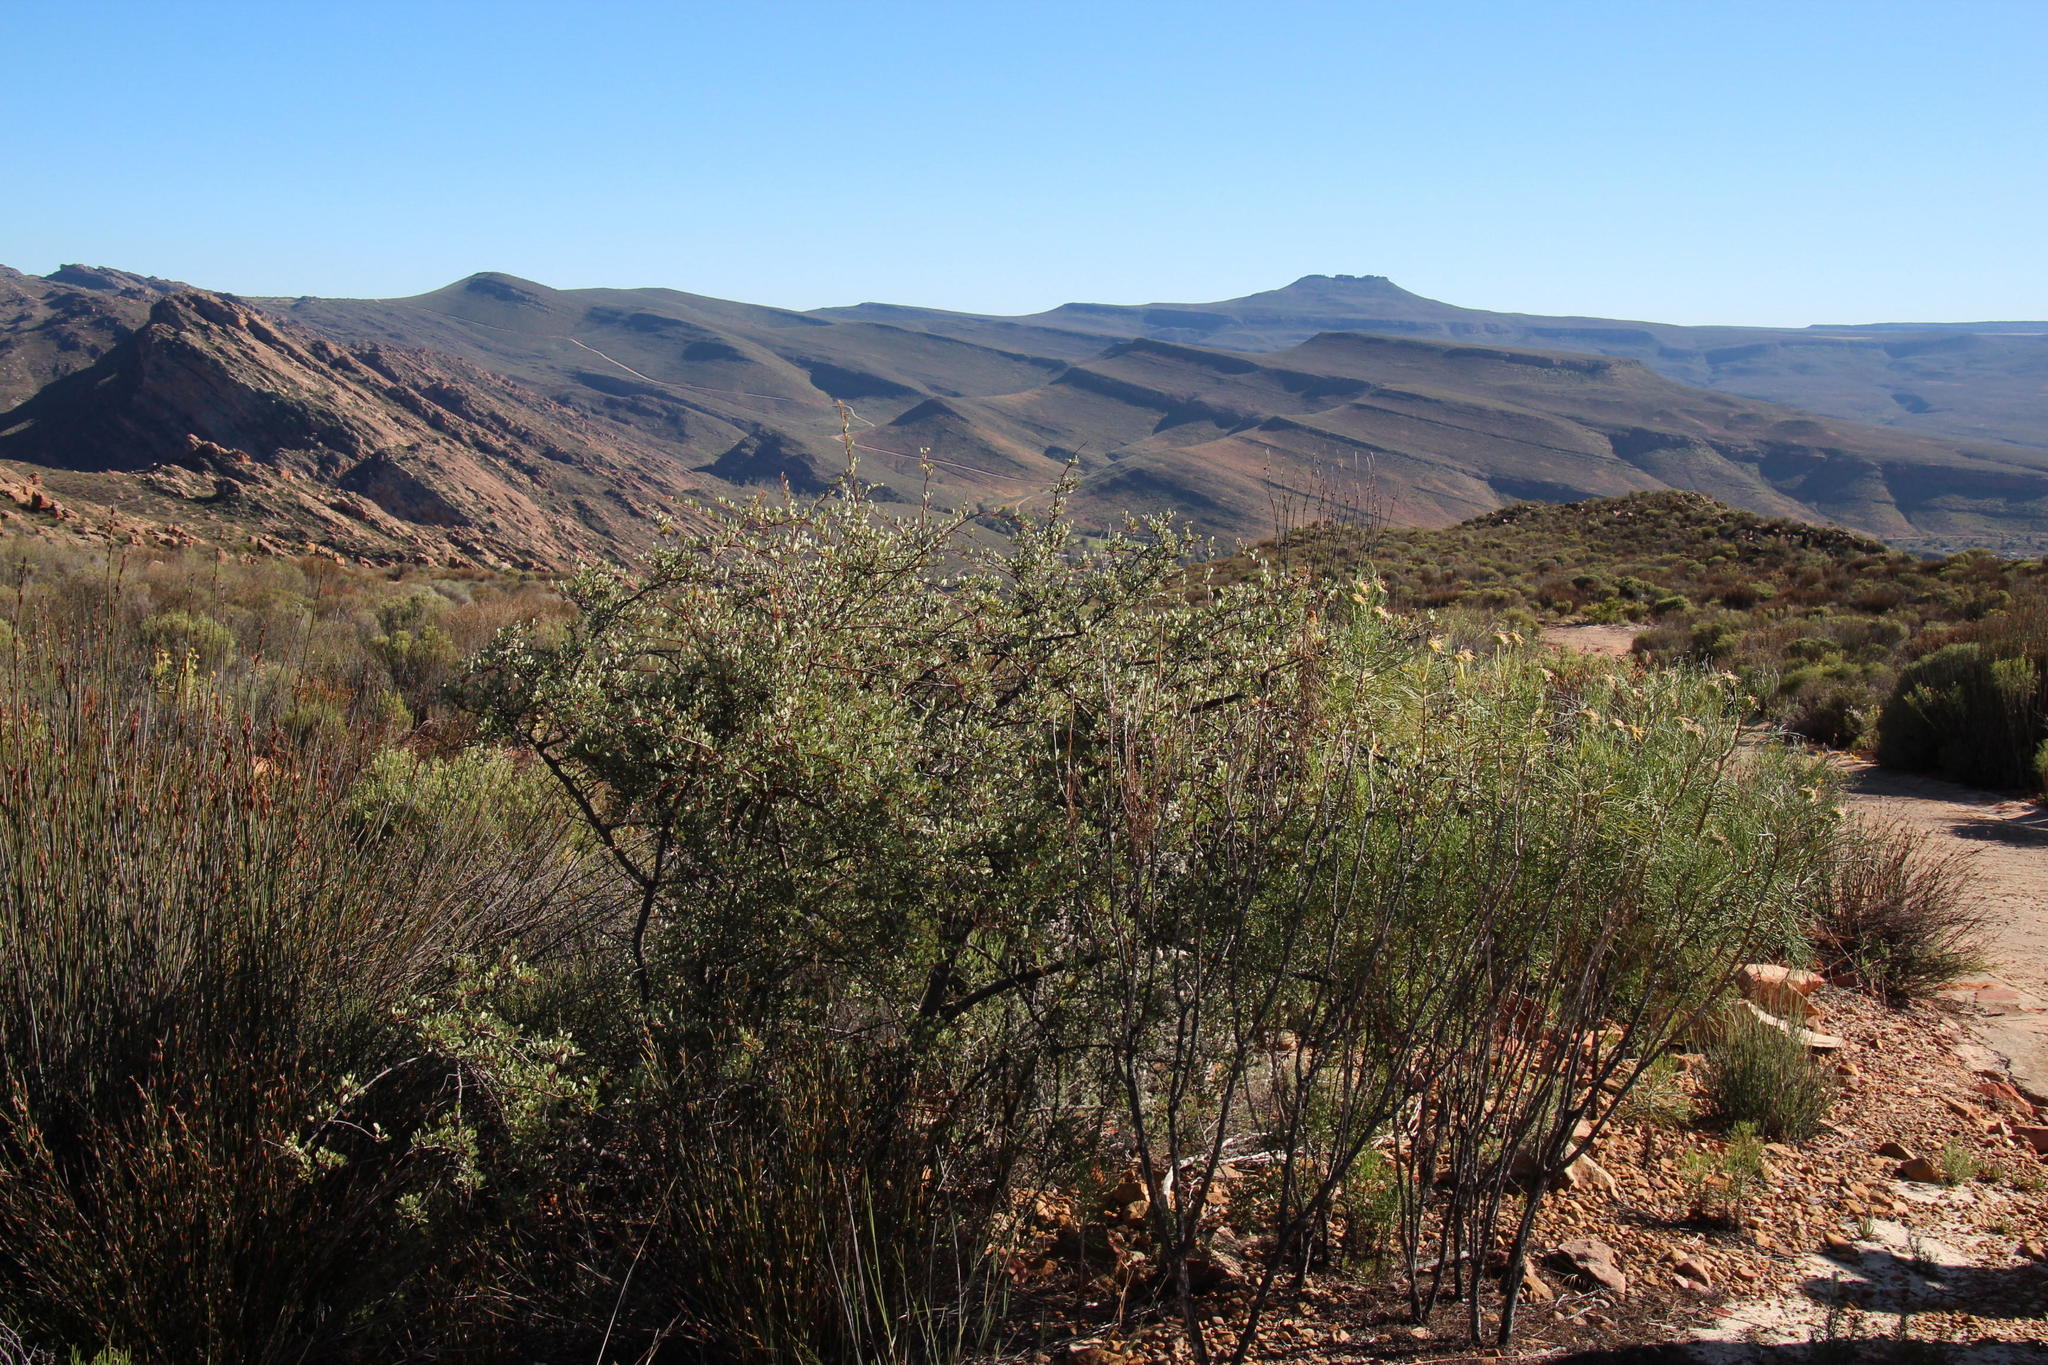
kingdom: Plantae
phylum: Tracheophyta
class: Magnoliopsida
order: Sapindales
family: Anacardiaceae
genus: Searsia
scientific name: Searsia dissecta
